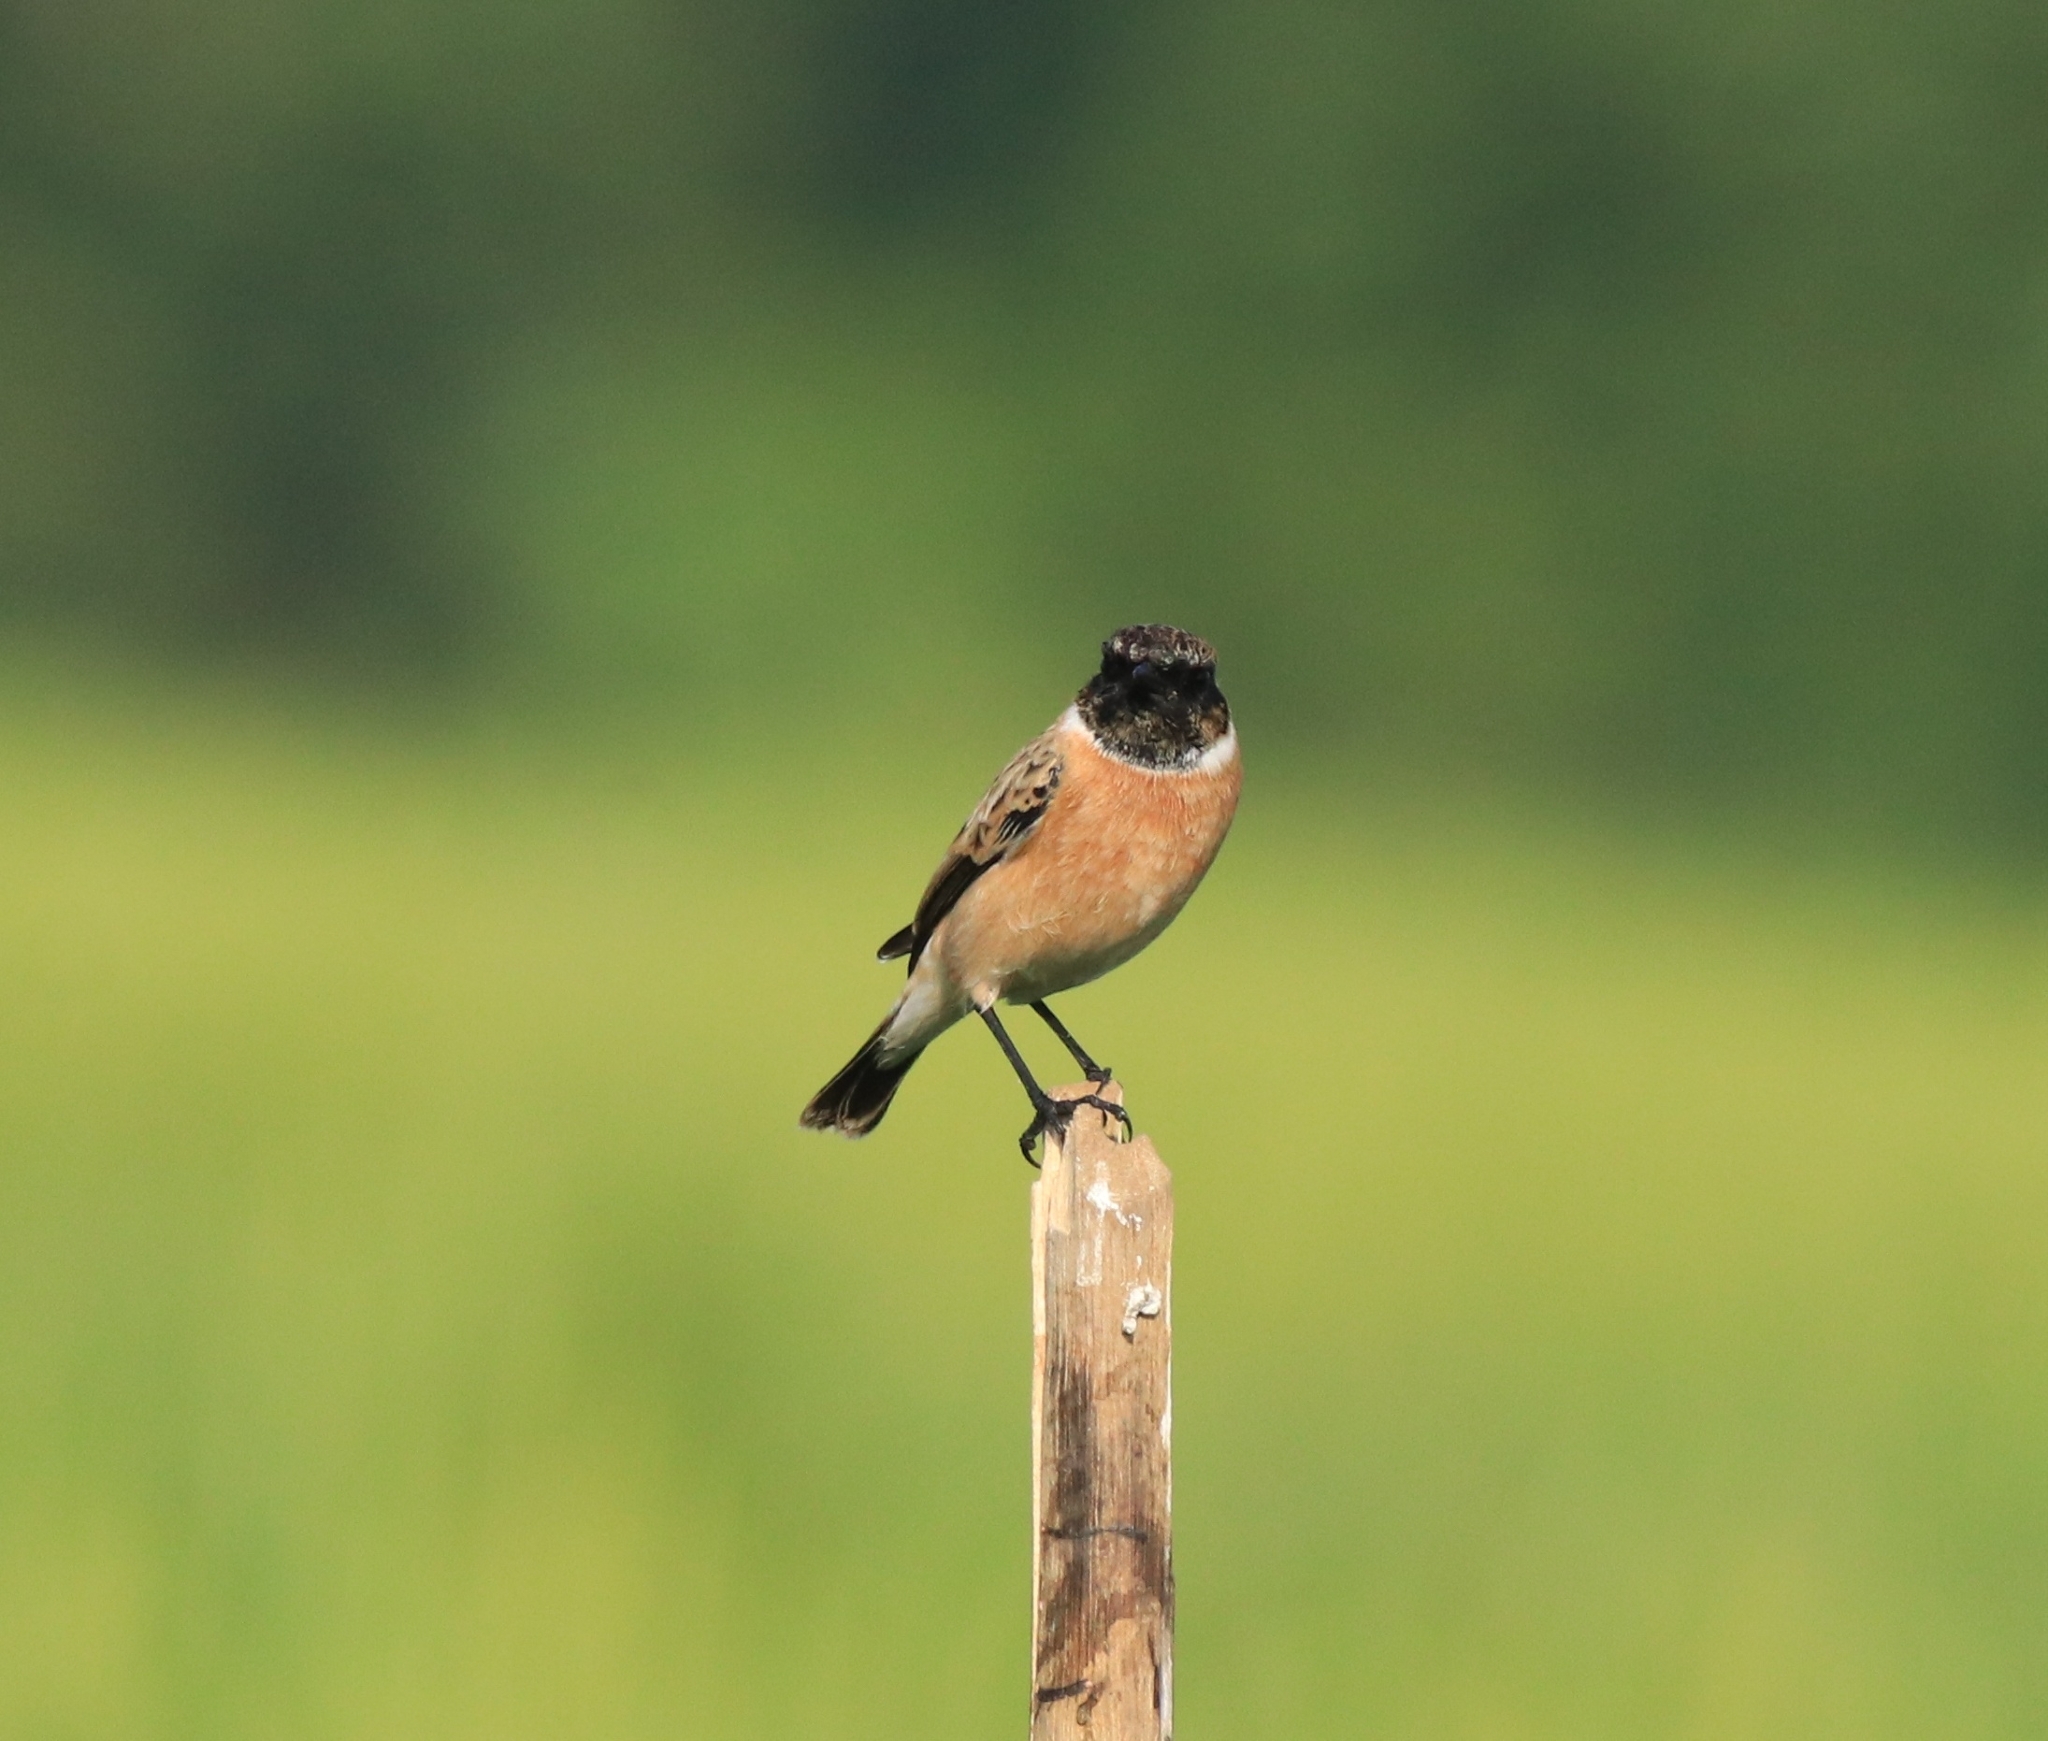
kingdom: Animalia
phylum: Chordata
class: Aves
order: Passeriformes
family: Muscicapidae
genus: Saxicola
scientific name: Saxicola maurus
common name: Siberian stonechat
